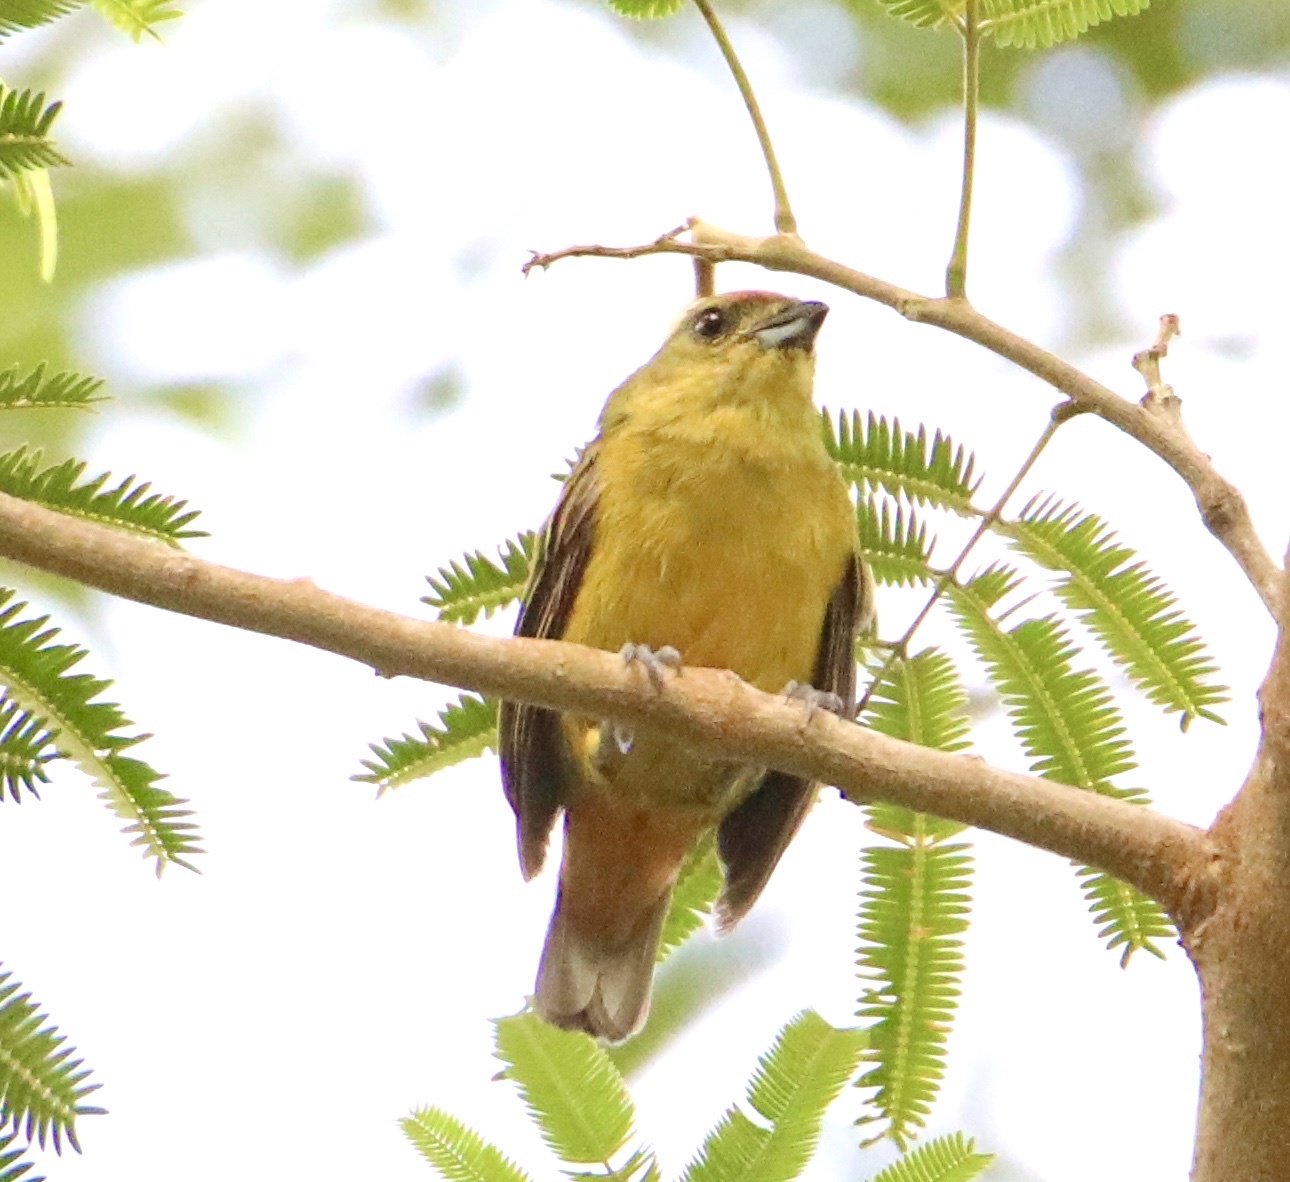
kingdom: Animalia
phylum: Chordata
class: Aves
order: Passeriformes
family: Fringillidae
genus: Euphonia
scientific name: Euphonia fulvicrissa
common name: Fulvous-vented euphonia
